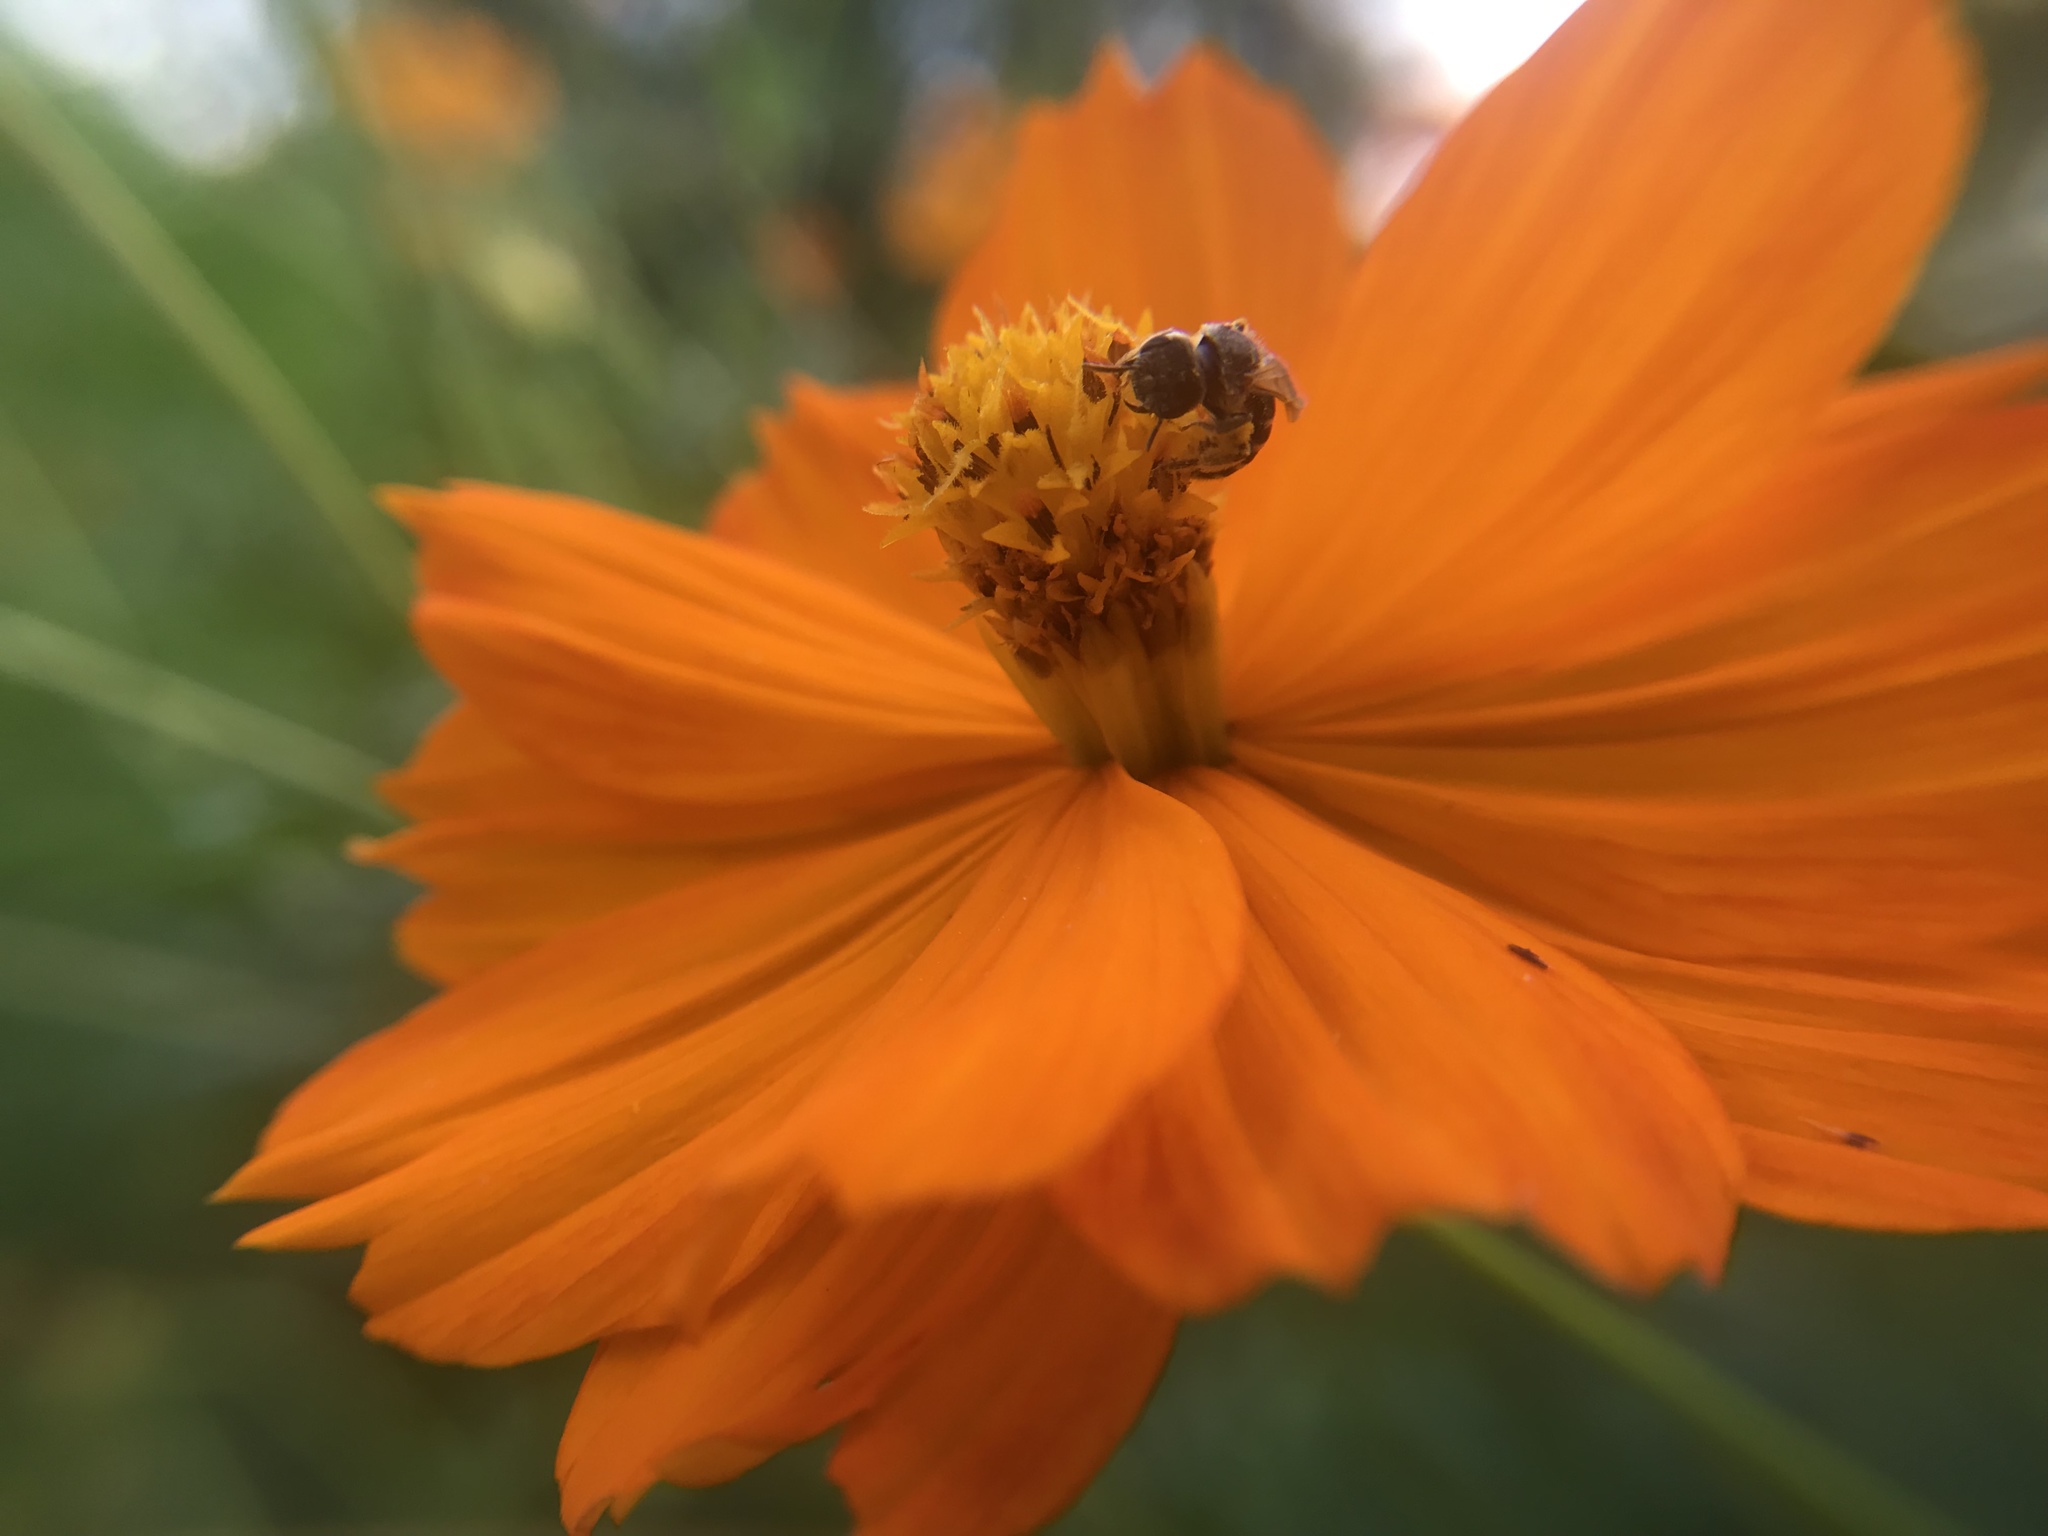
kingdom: Animalia
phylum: Arthropoda
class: Insecta
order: Hymenoptera
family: Halictidae
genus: Halictus
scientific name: Halictus ligatus
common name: Ligated furrow bee
